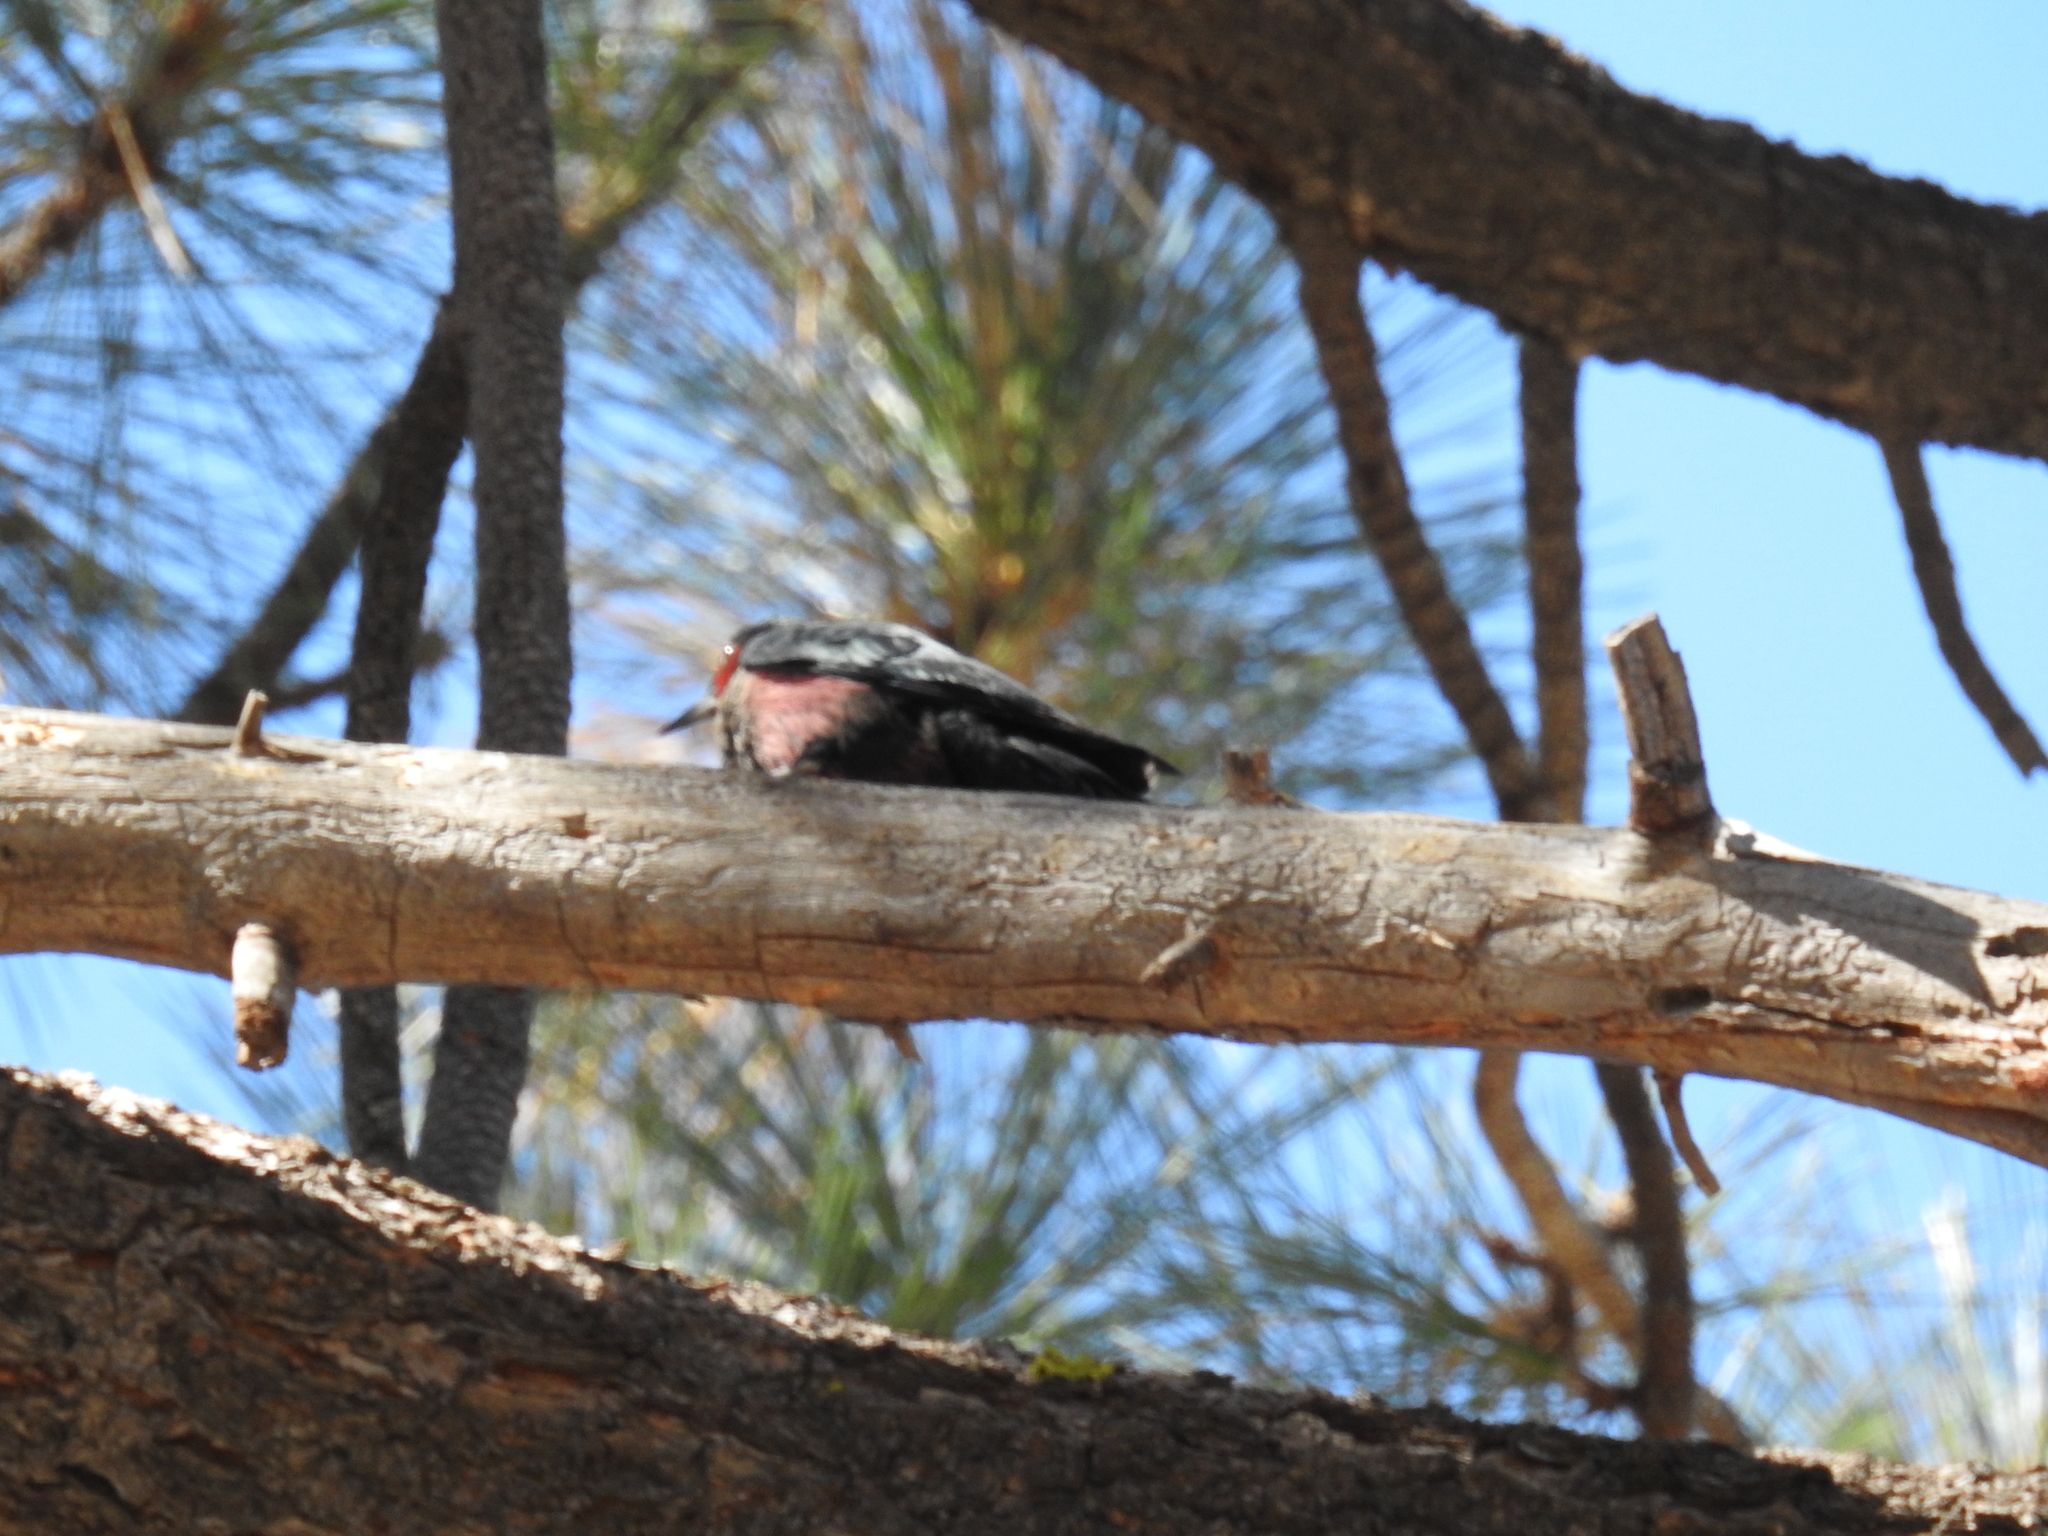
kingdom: Animalia
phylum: Chordata
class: Aves
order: Piciformes
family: Picidae
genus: Melanerpes
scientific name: Melanerpes lewis
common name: Lewis's woodpecker
